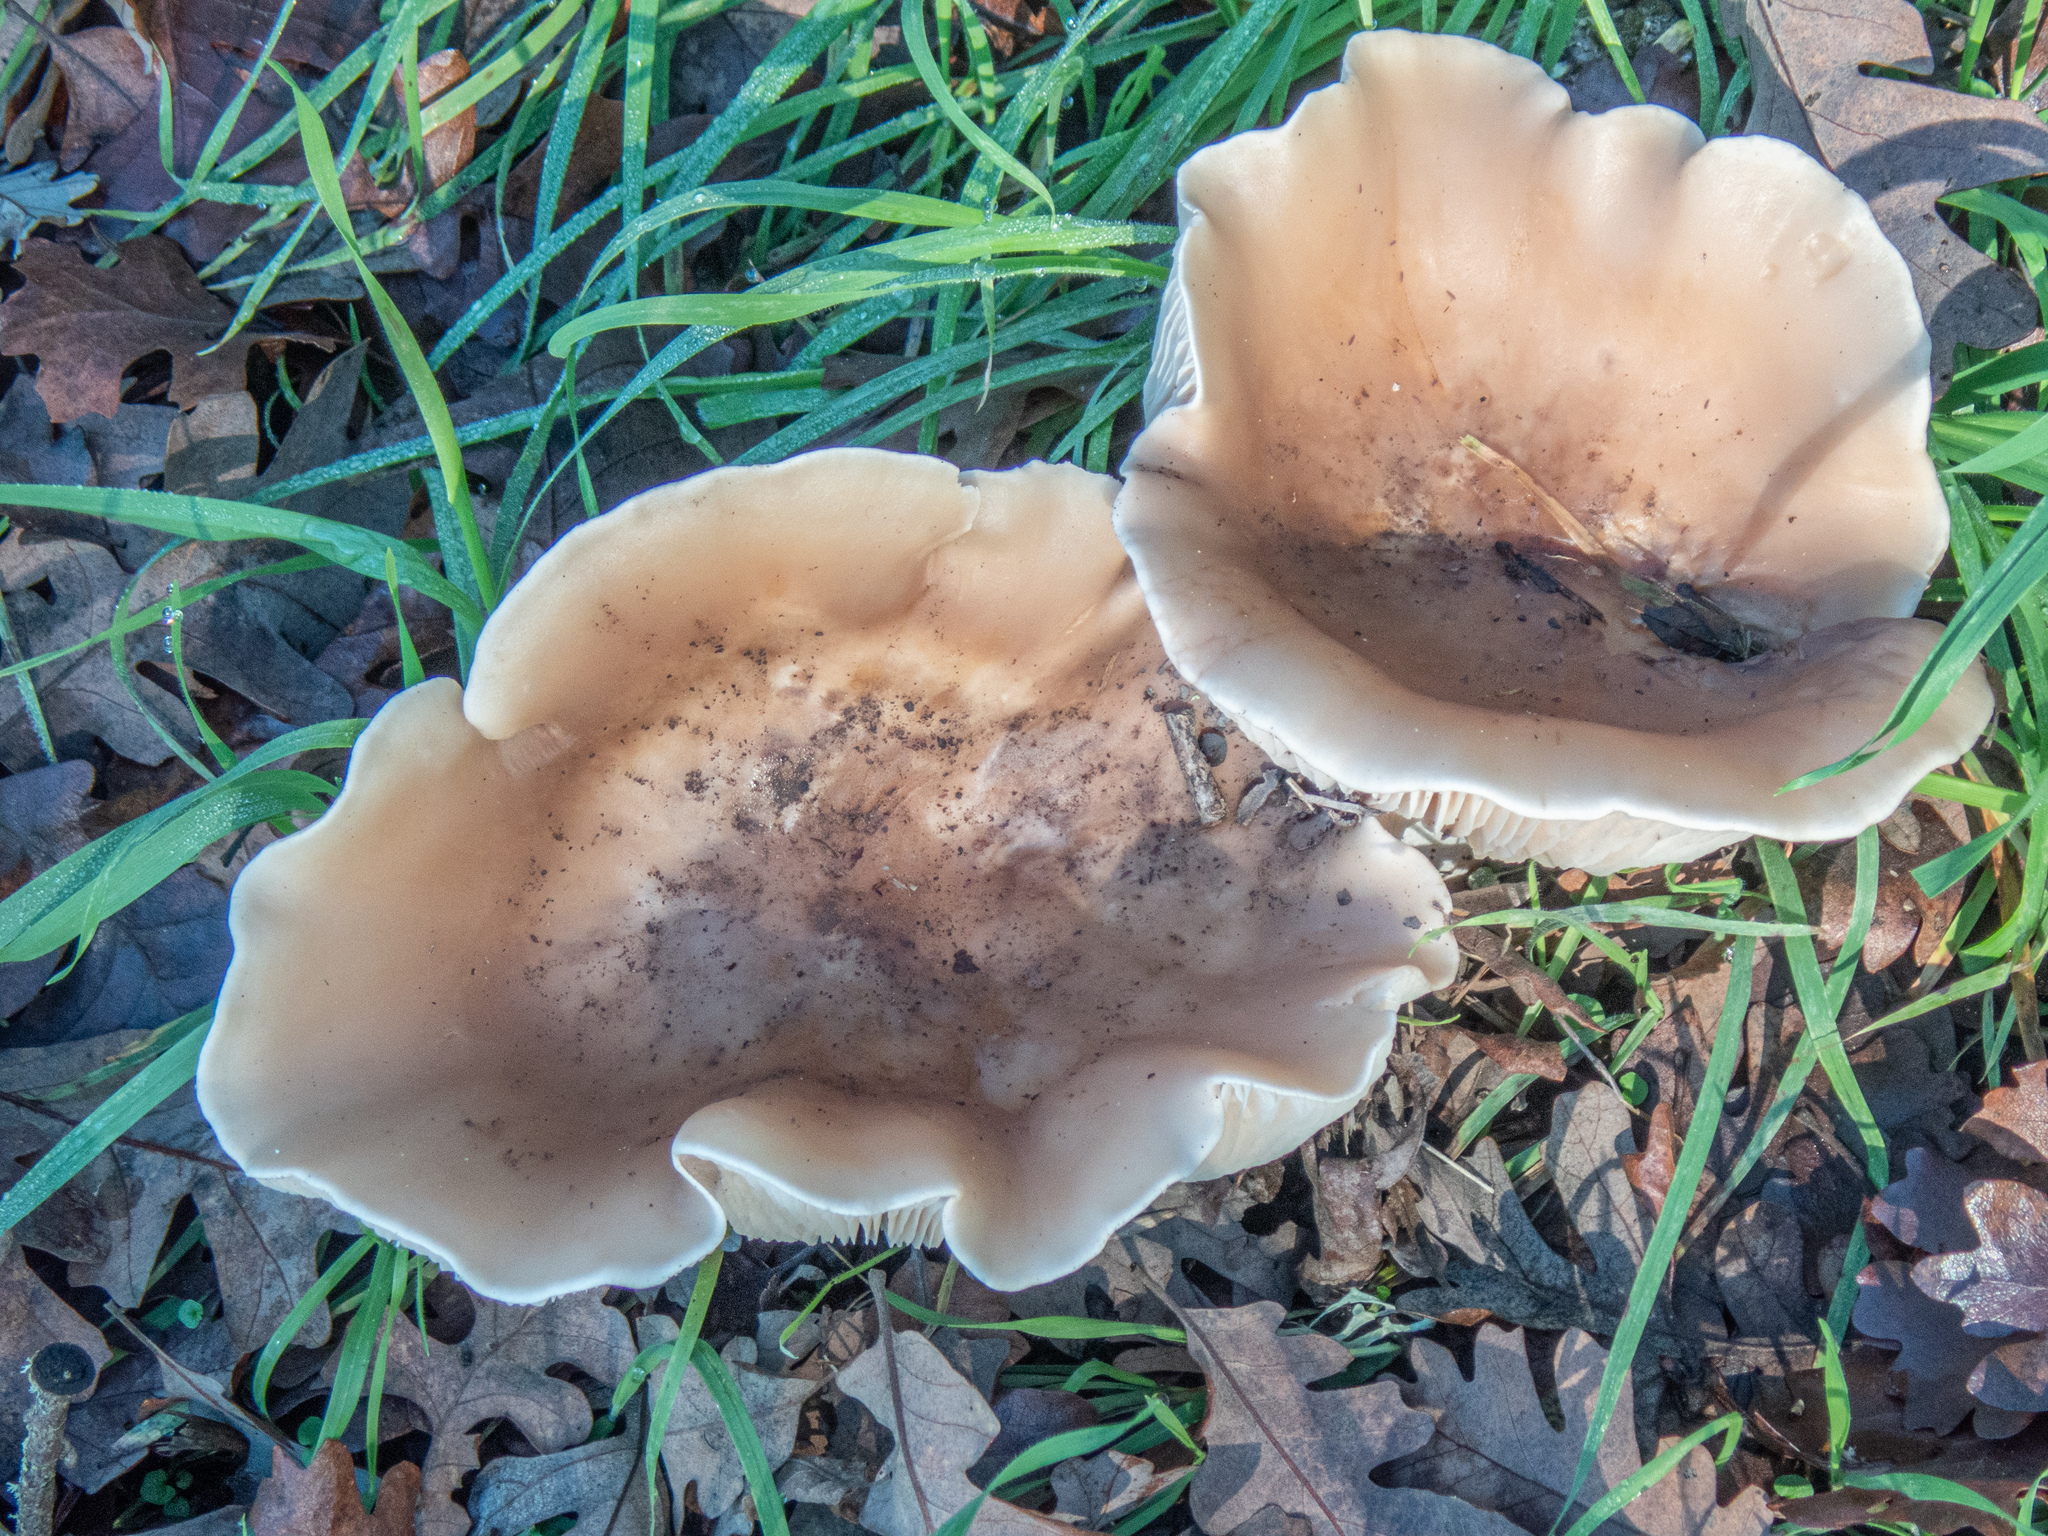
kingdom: Fungi
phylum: Basidiomycota
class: Agaricomycetes
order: Agaricales
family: Tricholomataceae
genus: Collybia
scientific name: Collybia
